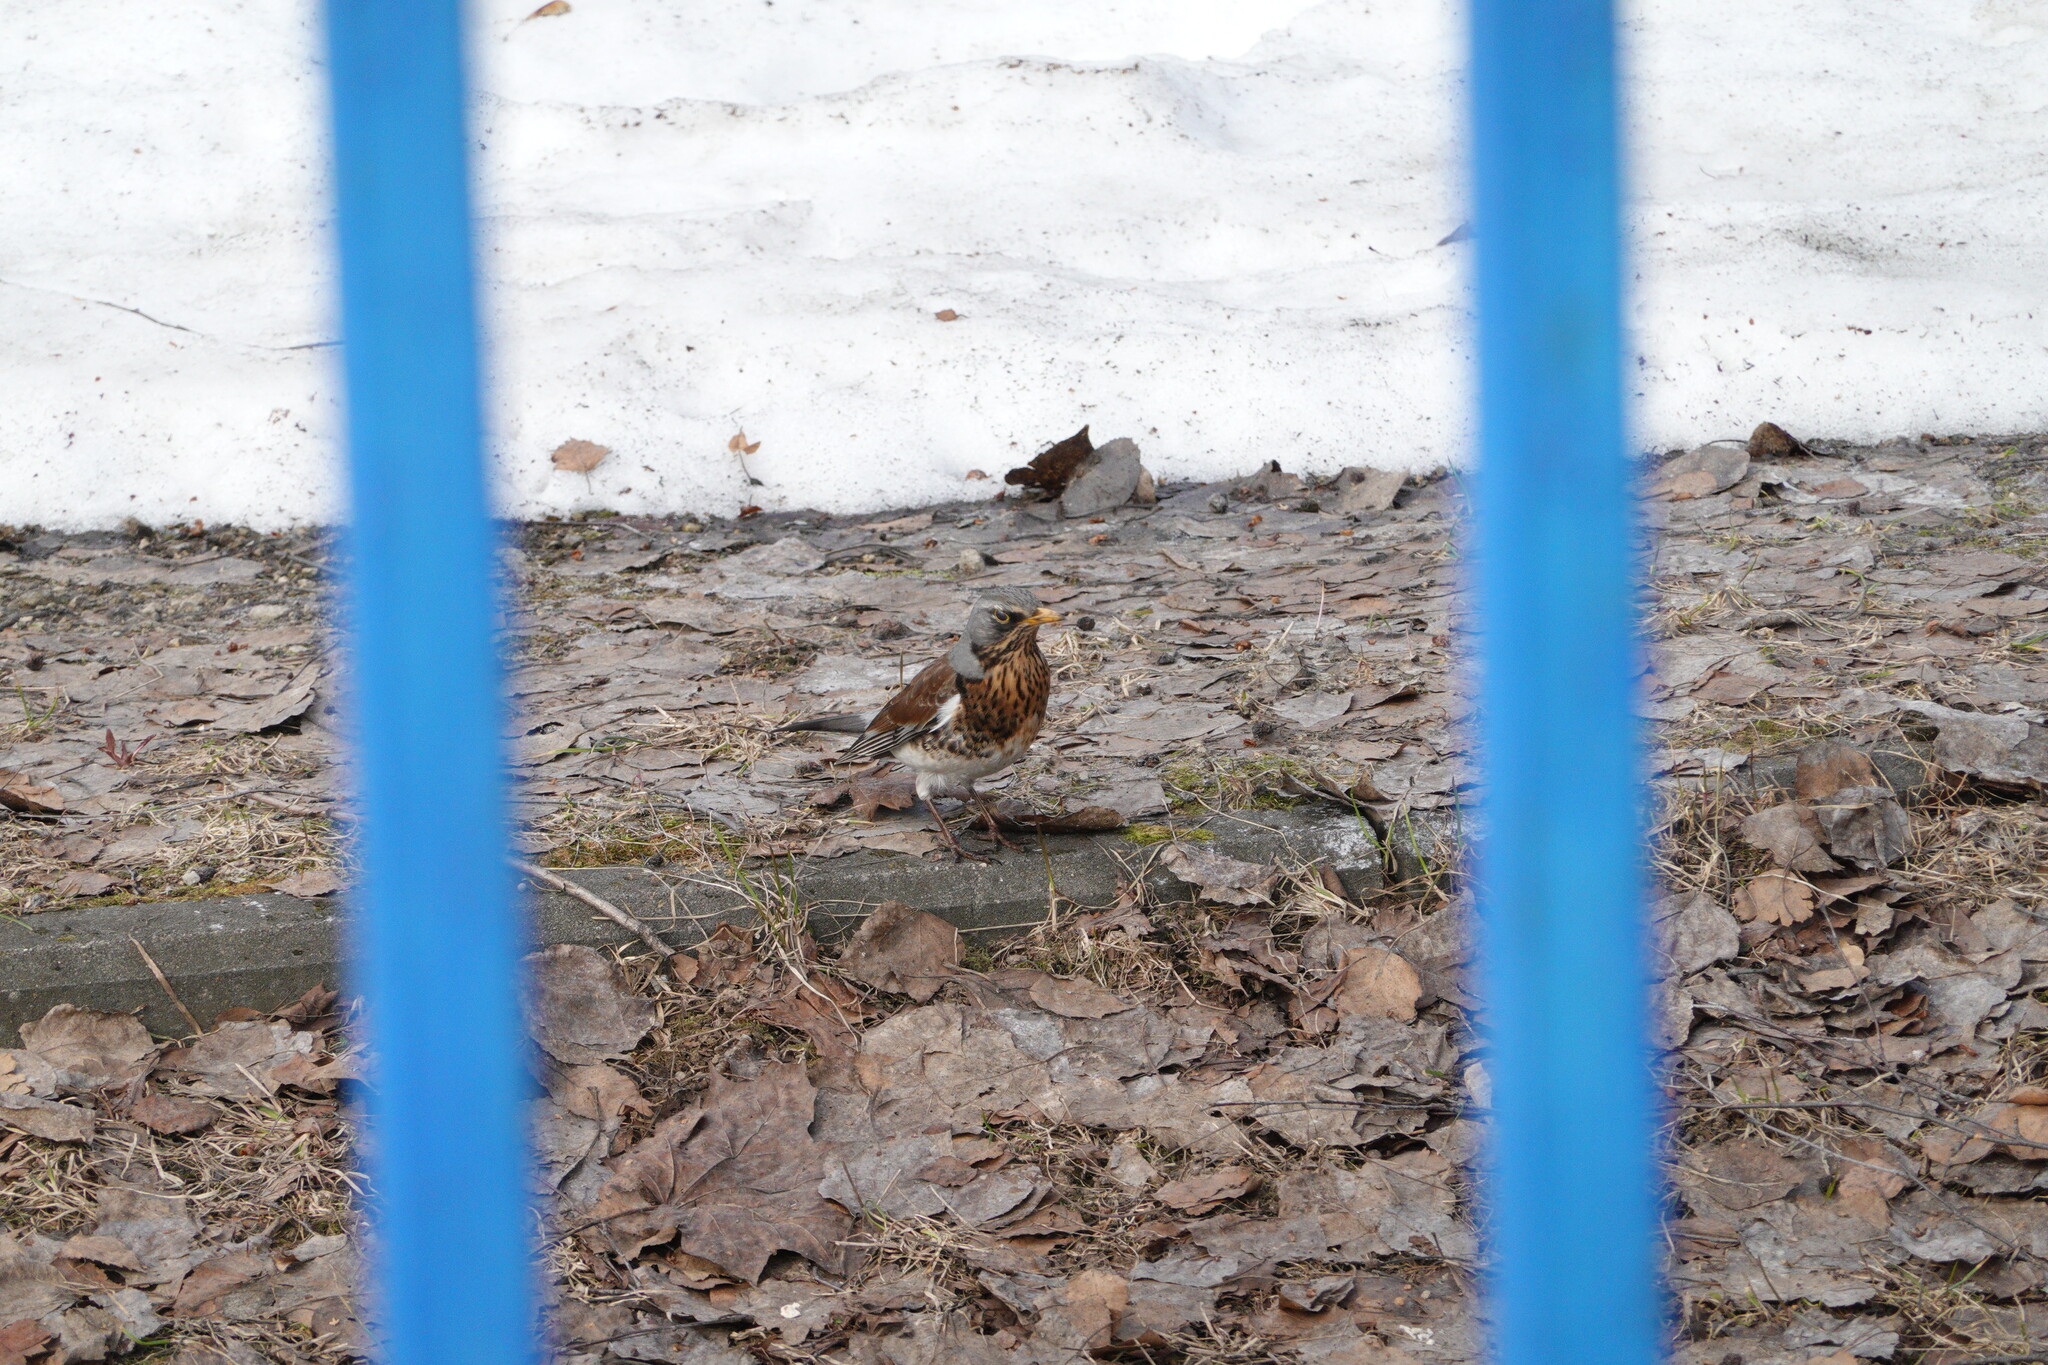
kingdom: Animalia
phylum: Chordata
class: Aves
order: Passeriformes
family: Turdidae
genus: Turdus
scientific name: Turdus pilaris
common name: Fieldfare
